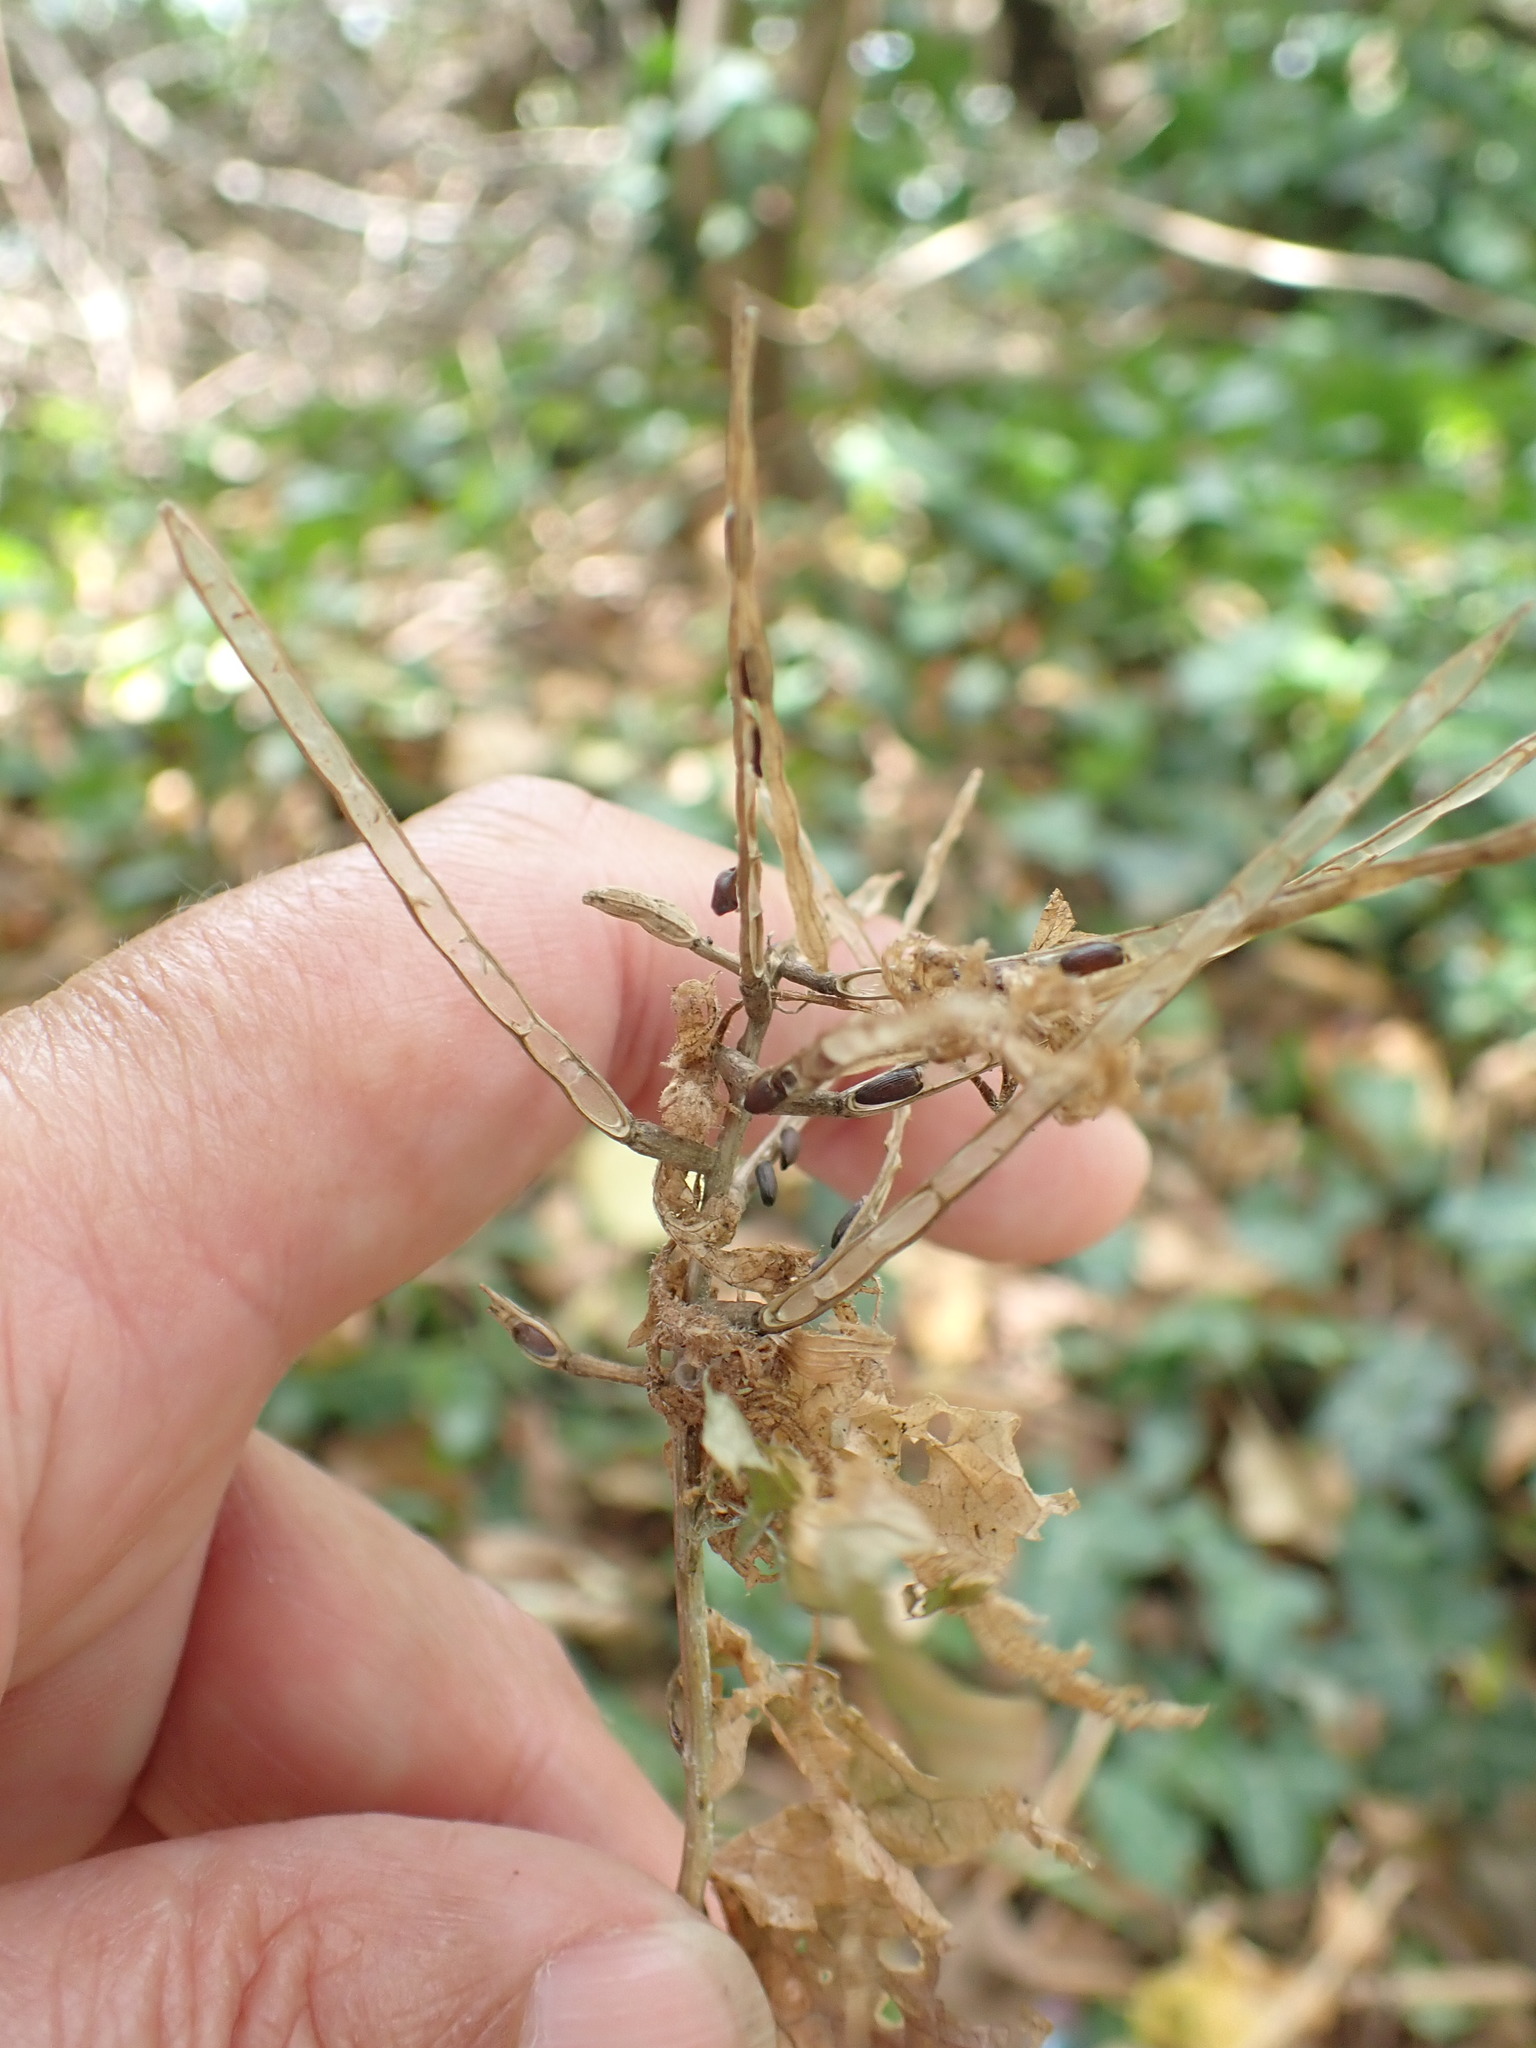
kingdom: Plantae
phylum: Tracheophyta
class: Magnoliopsida
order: Brassicales
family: Brassicaceae
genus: Alliaria
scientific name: Alliaria petiolata
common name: Garlic mustard
